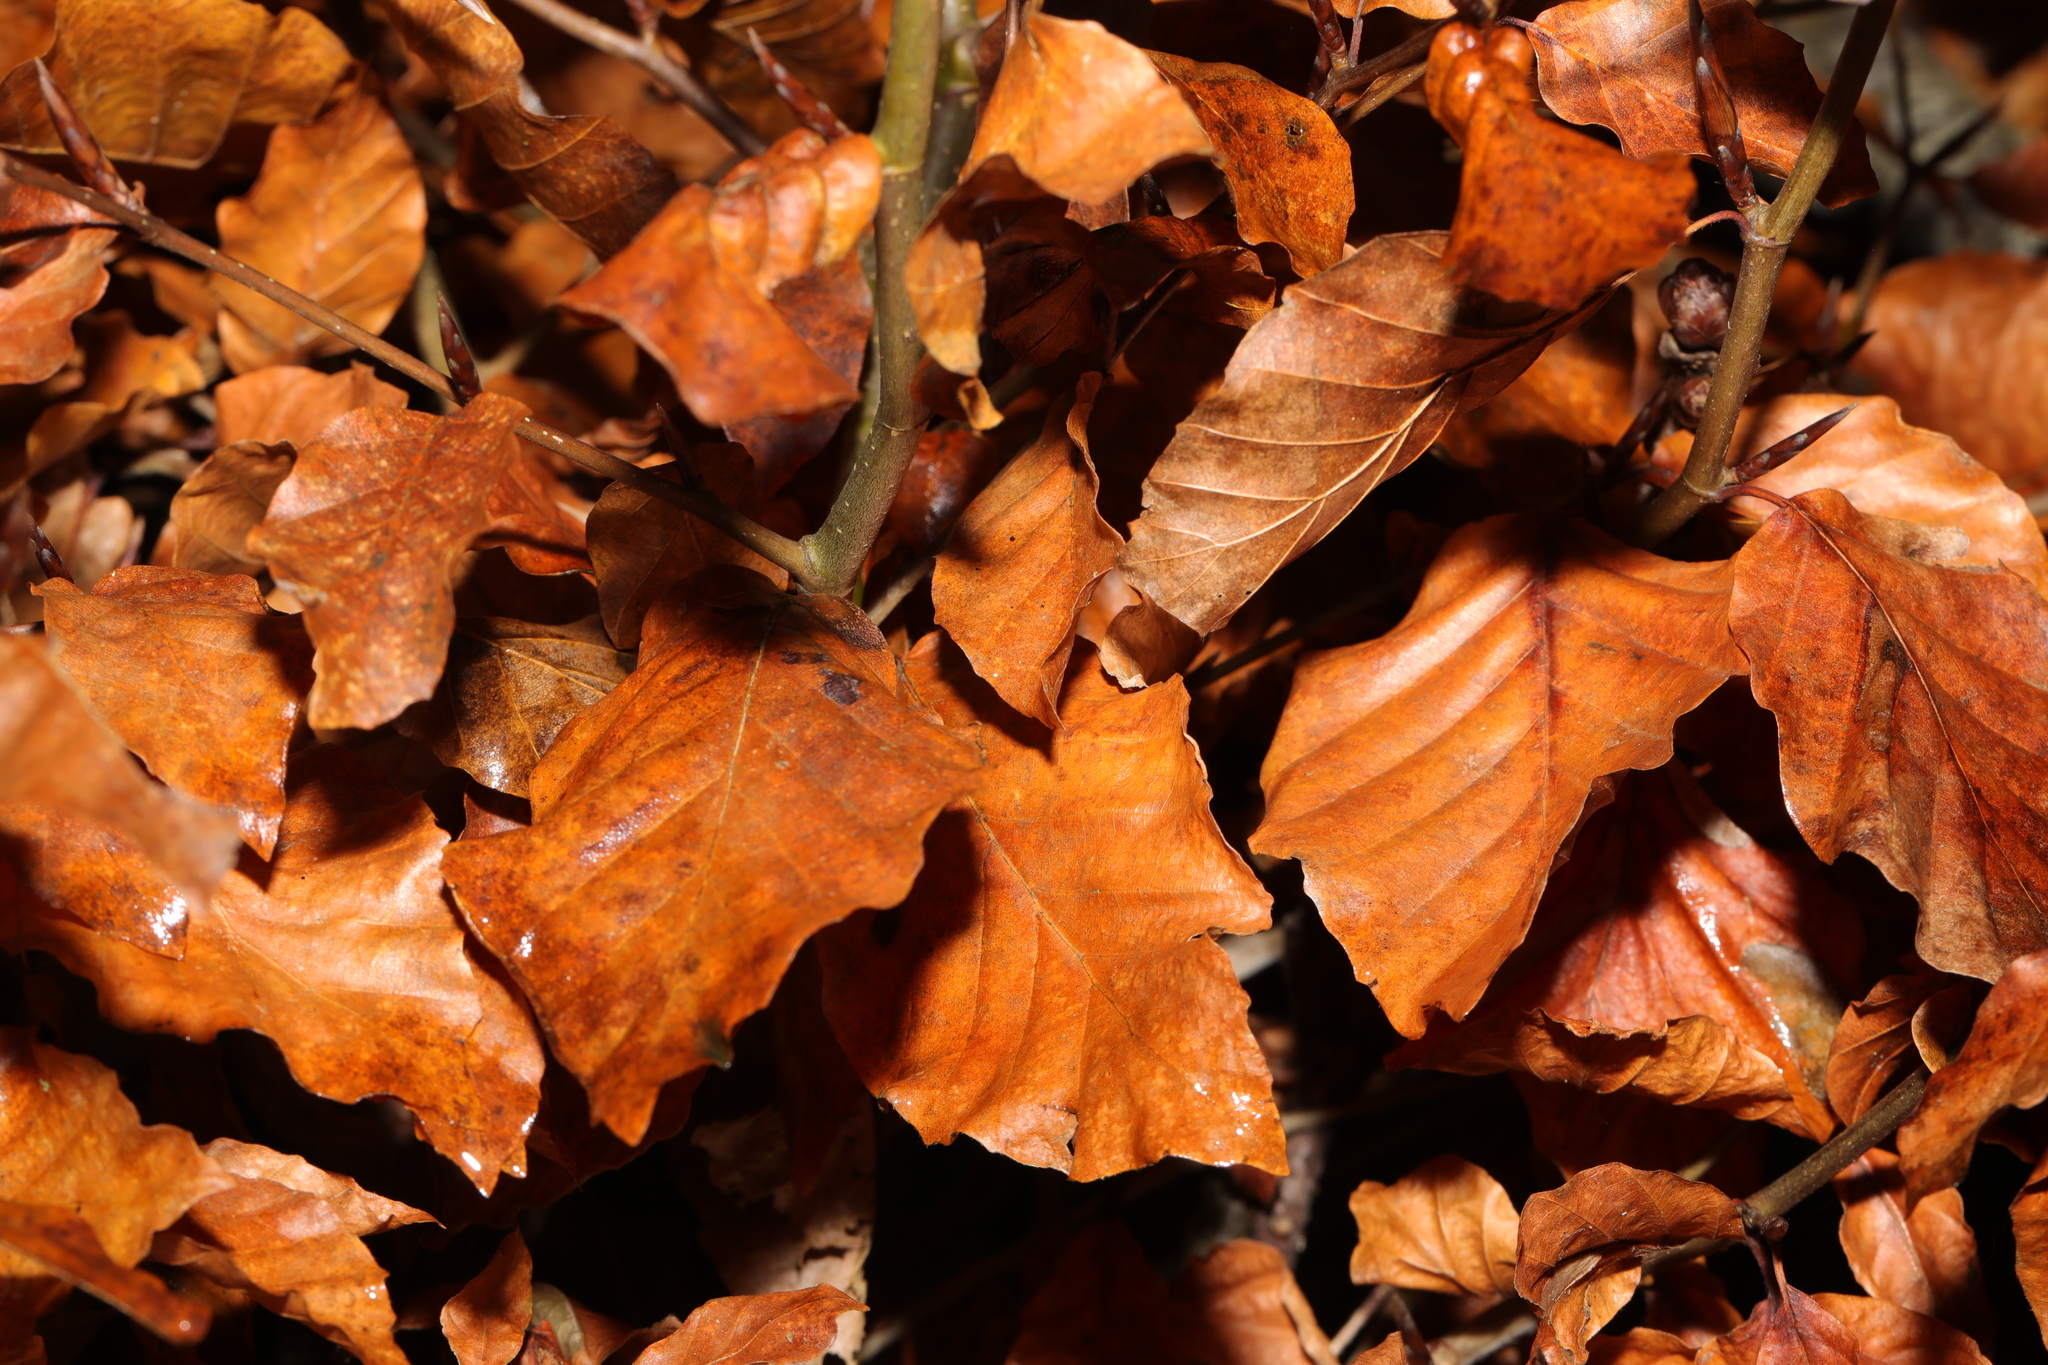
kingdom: Plantae
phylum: Tracheophyta
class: Magnoliopsida
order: Fagales
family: Fagaceae
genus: Fagus
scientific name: Fagus sylvatica
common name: Beech
